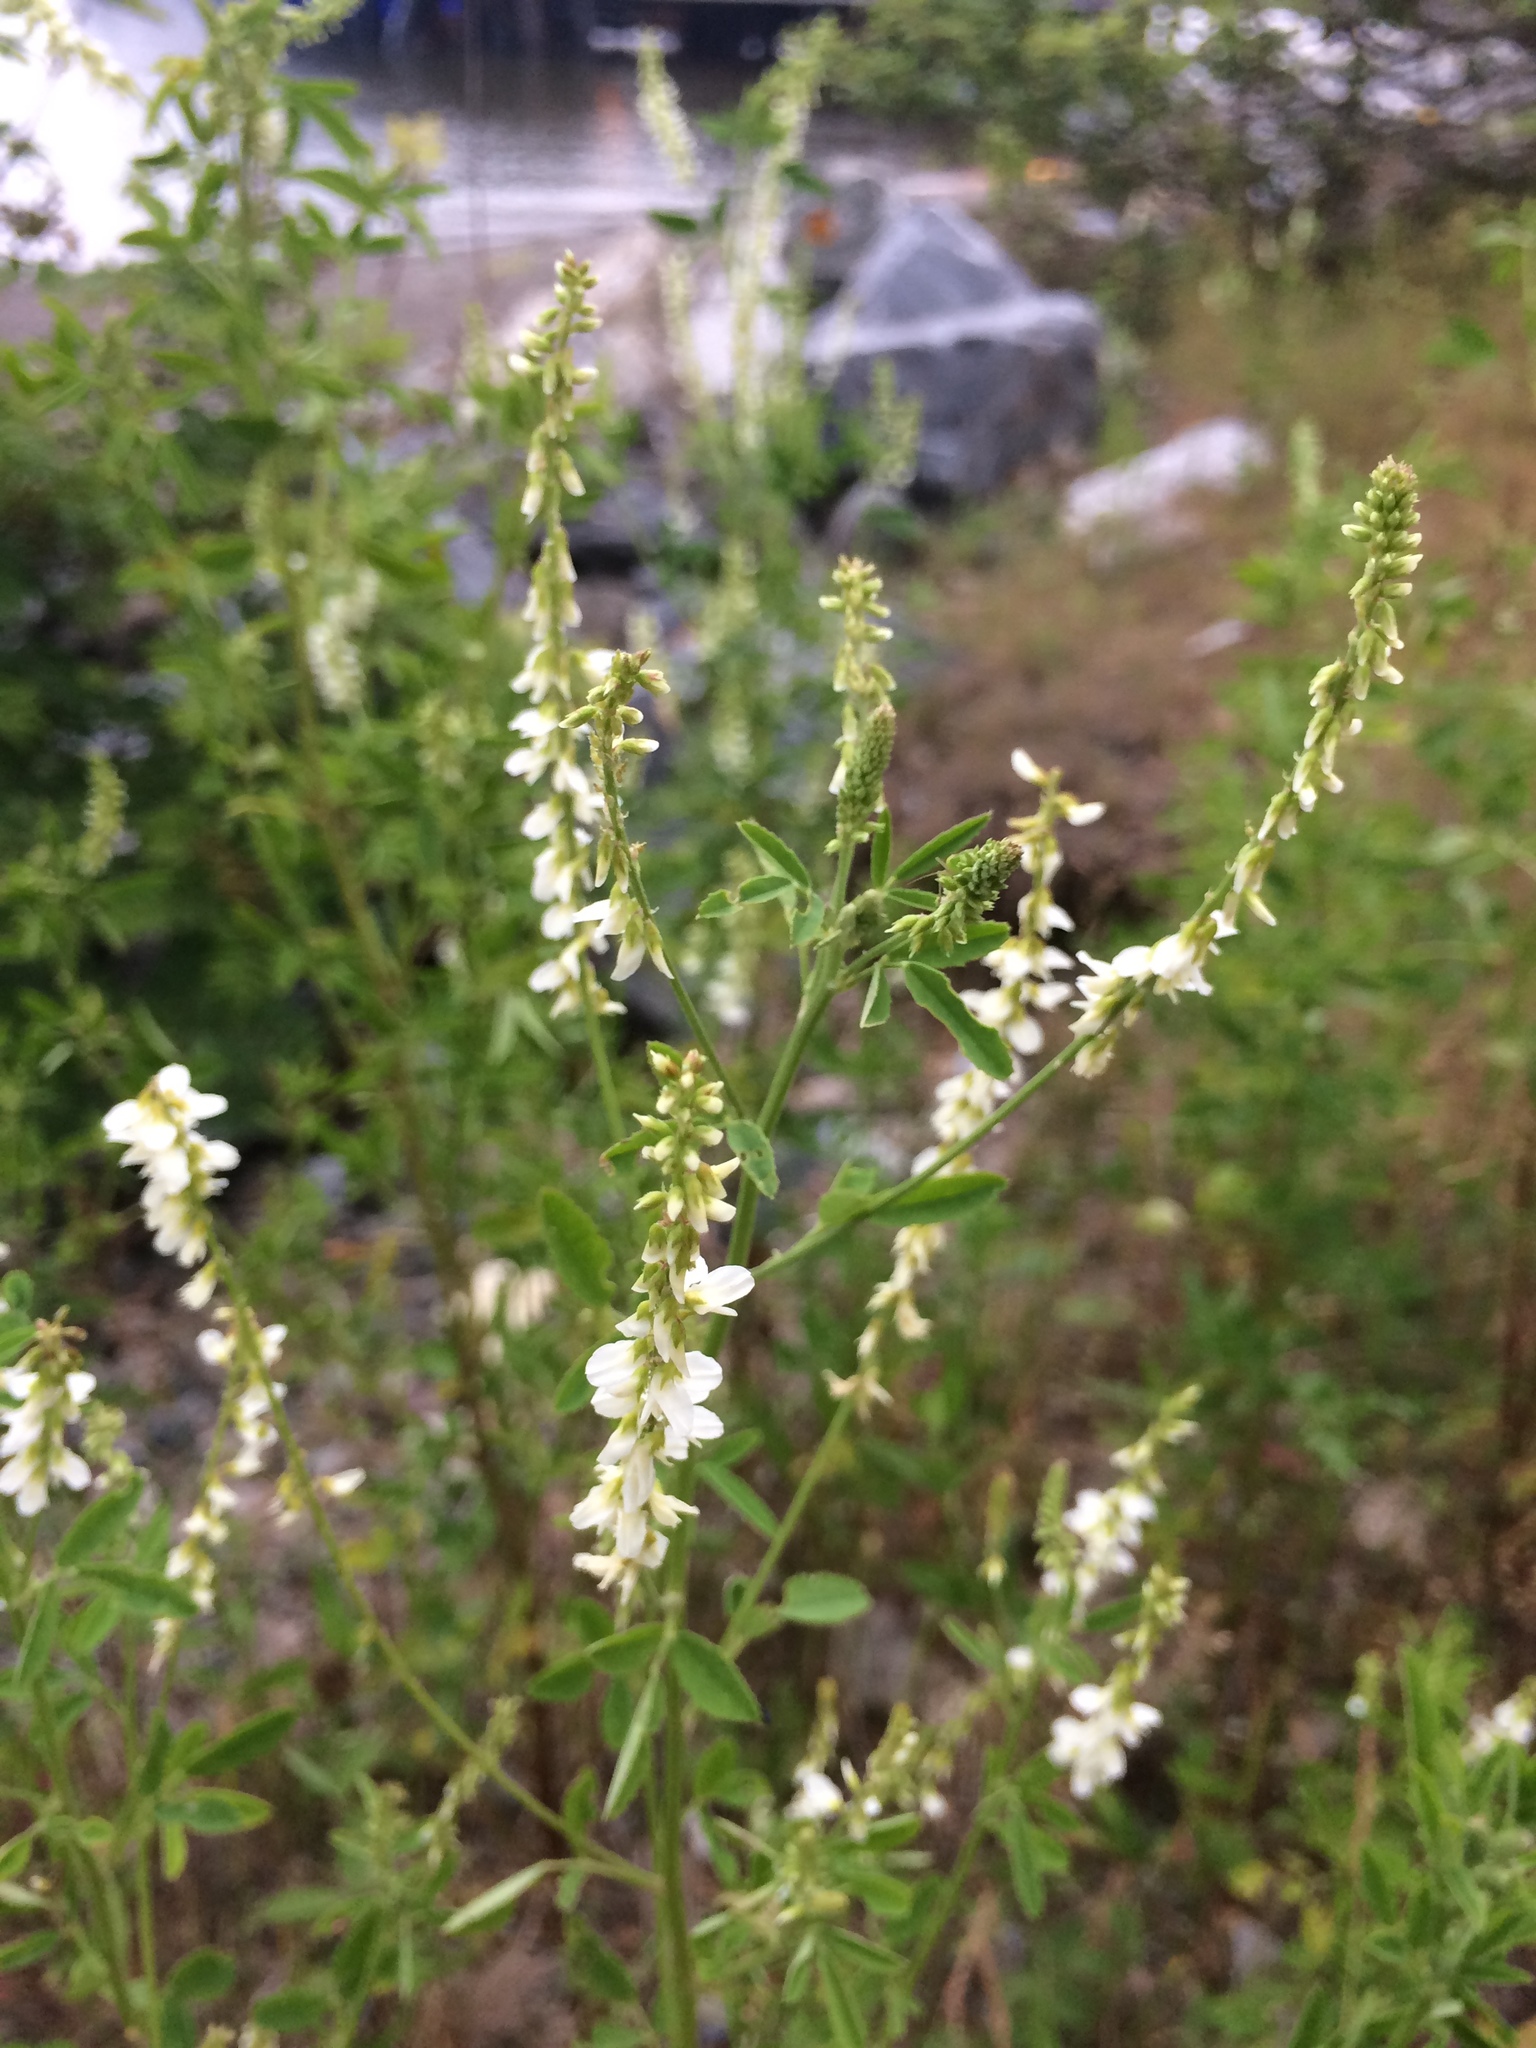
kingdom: Plantae
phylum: Tracheophyta
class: Magnoliopsida
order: Fabales
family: Fabaceae
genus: Melilotus
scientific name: Melilotus albus
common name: White melilot
